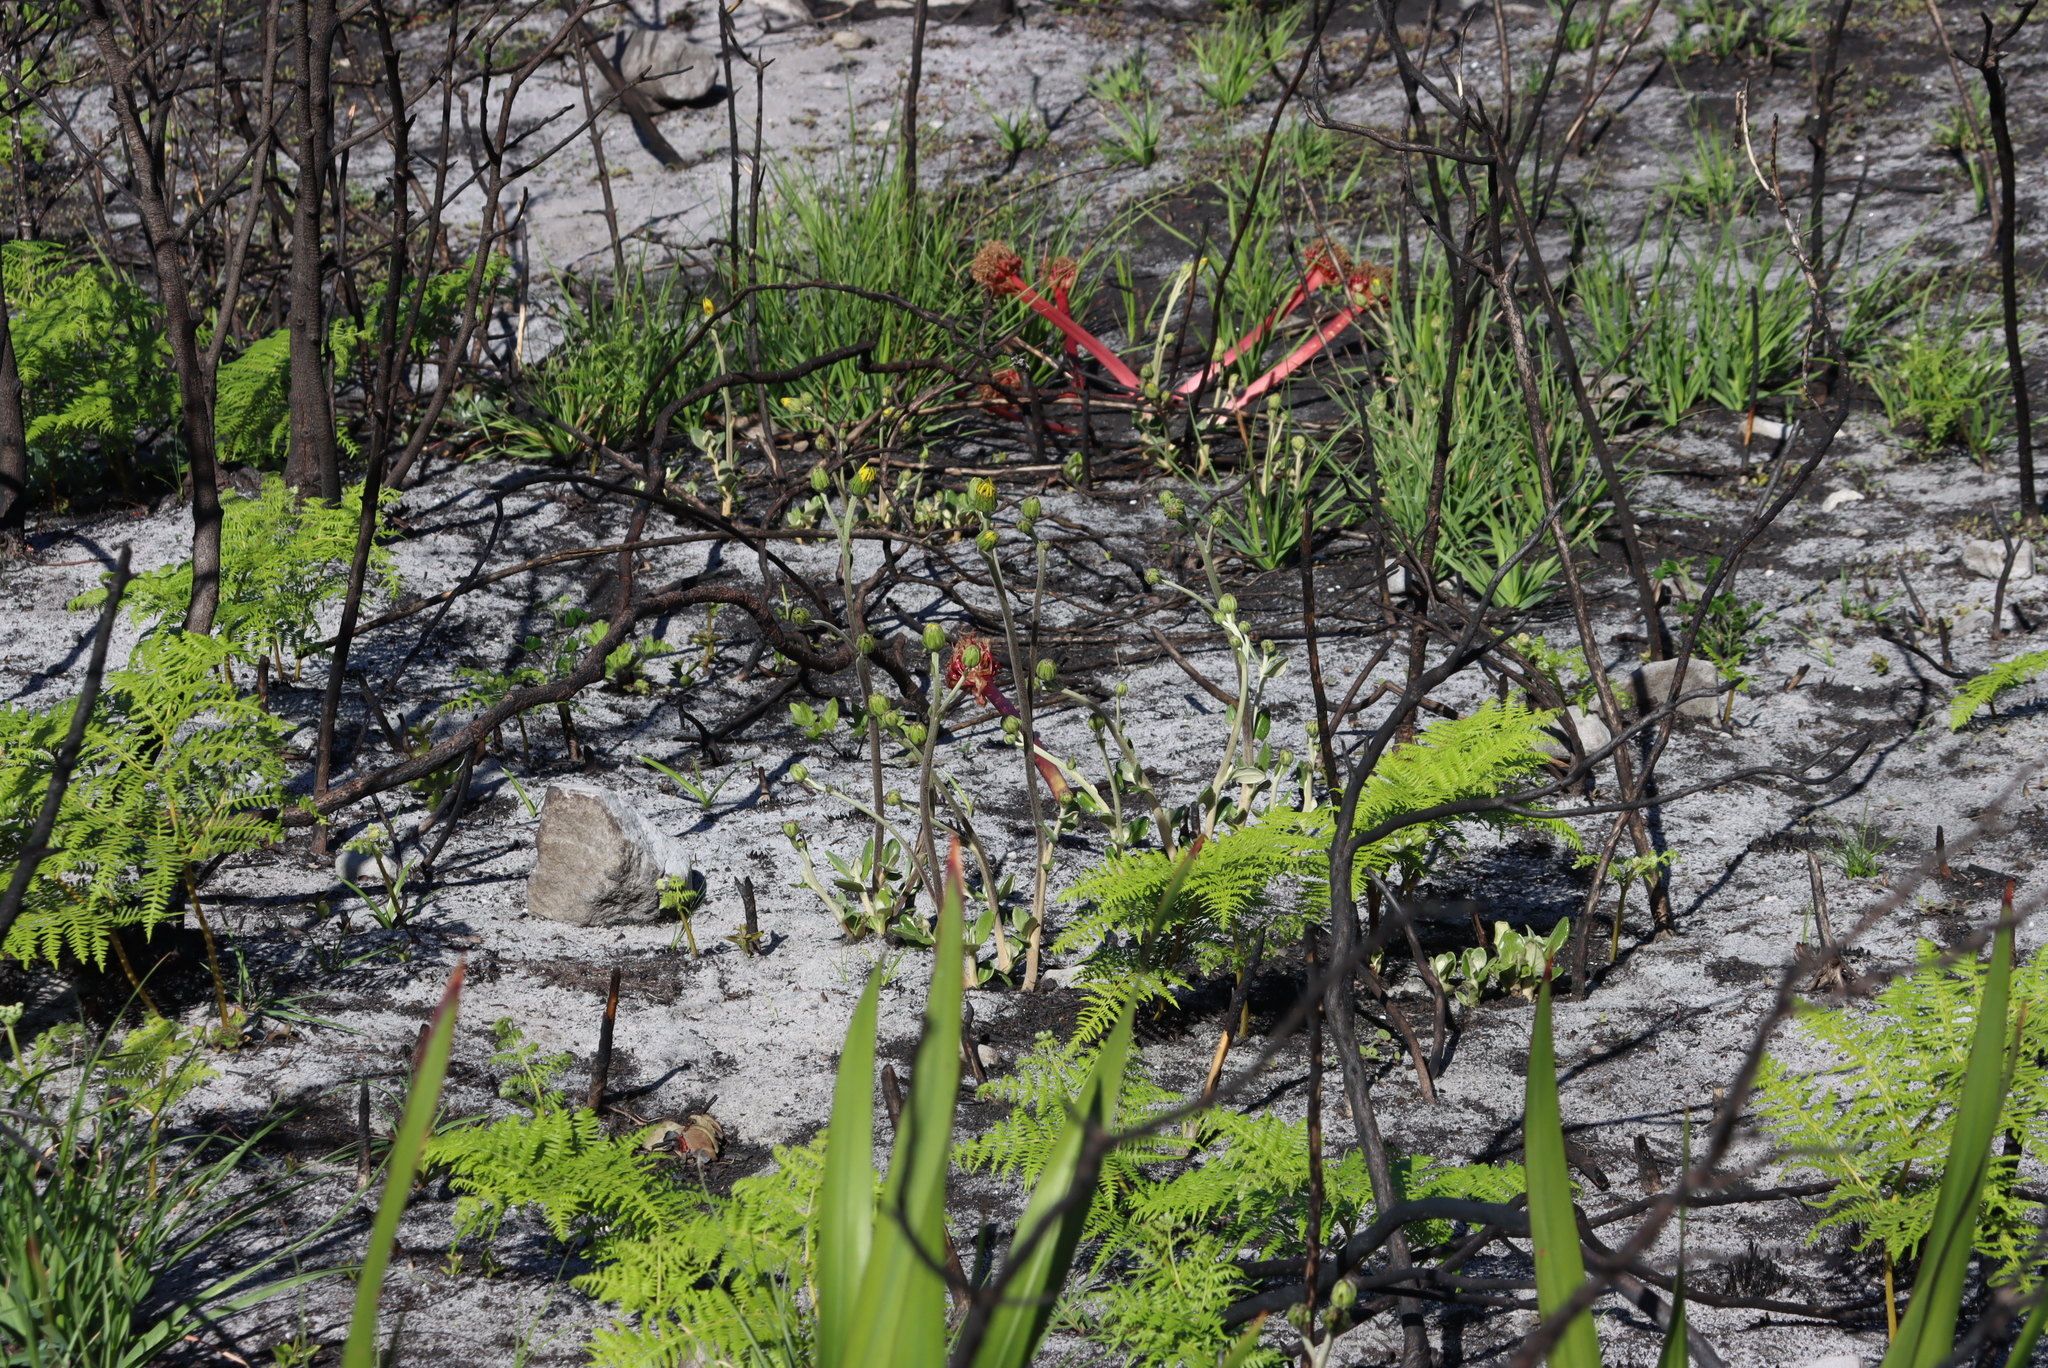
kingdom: Plantae
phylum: Tracheophyta
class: Magnoliopsida
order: Asterales
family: Asteraceae
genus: Capelio
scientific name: Capelio tabularis
